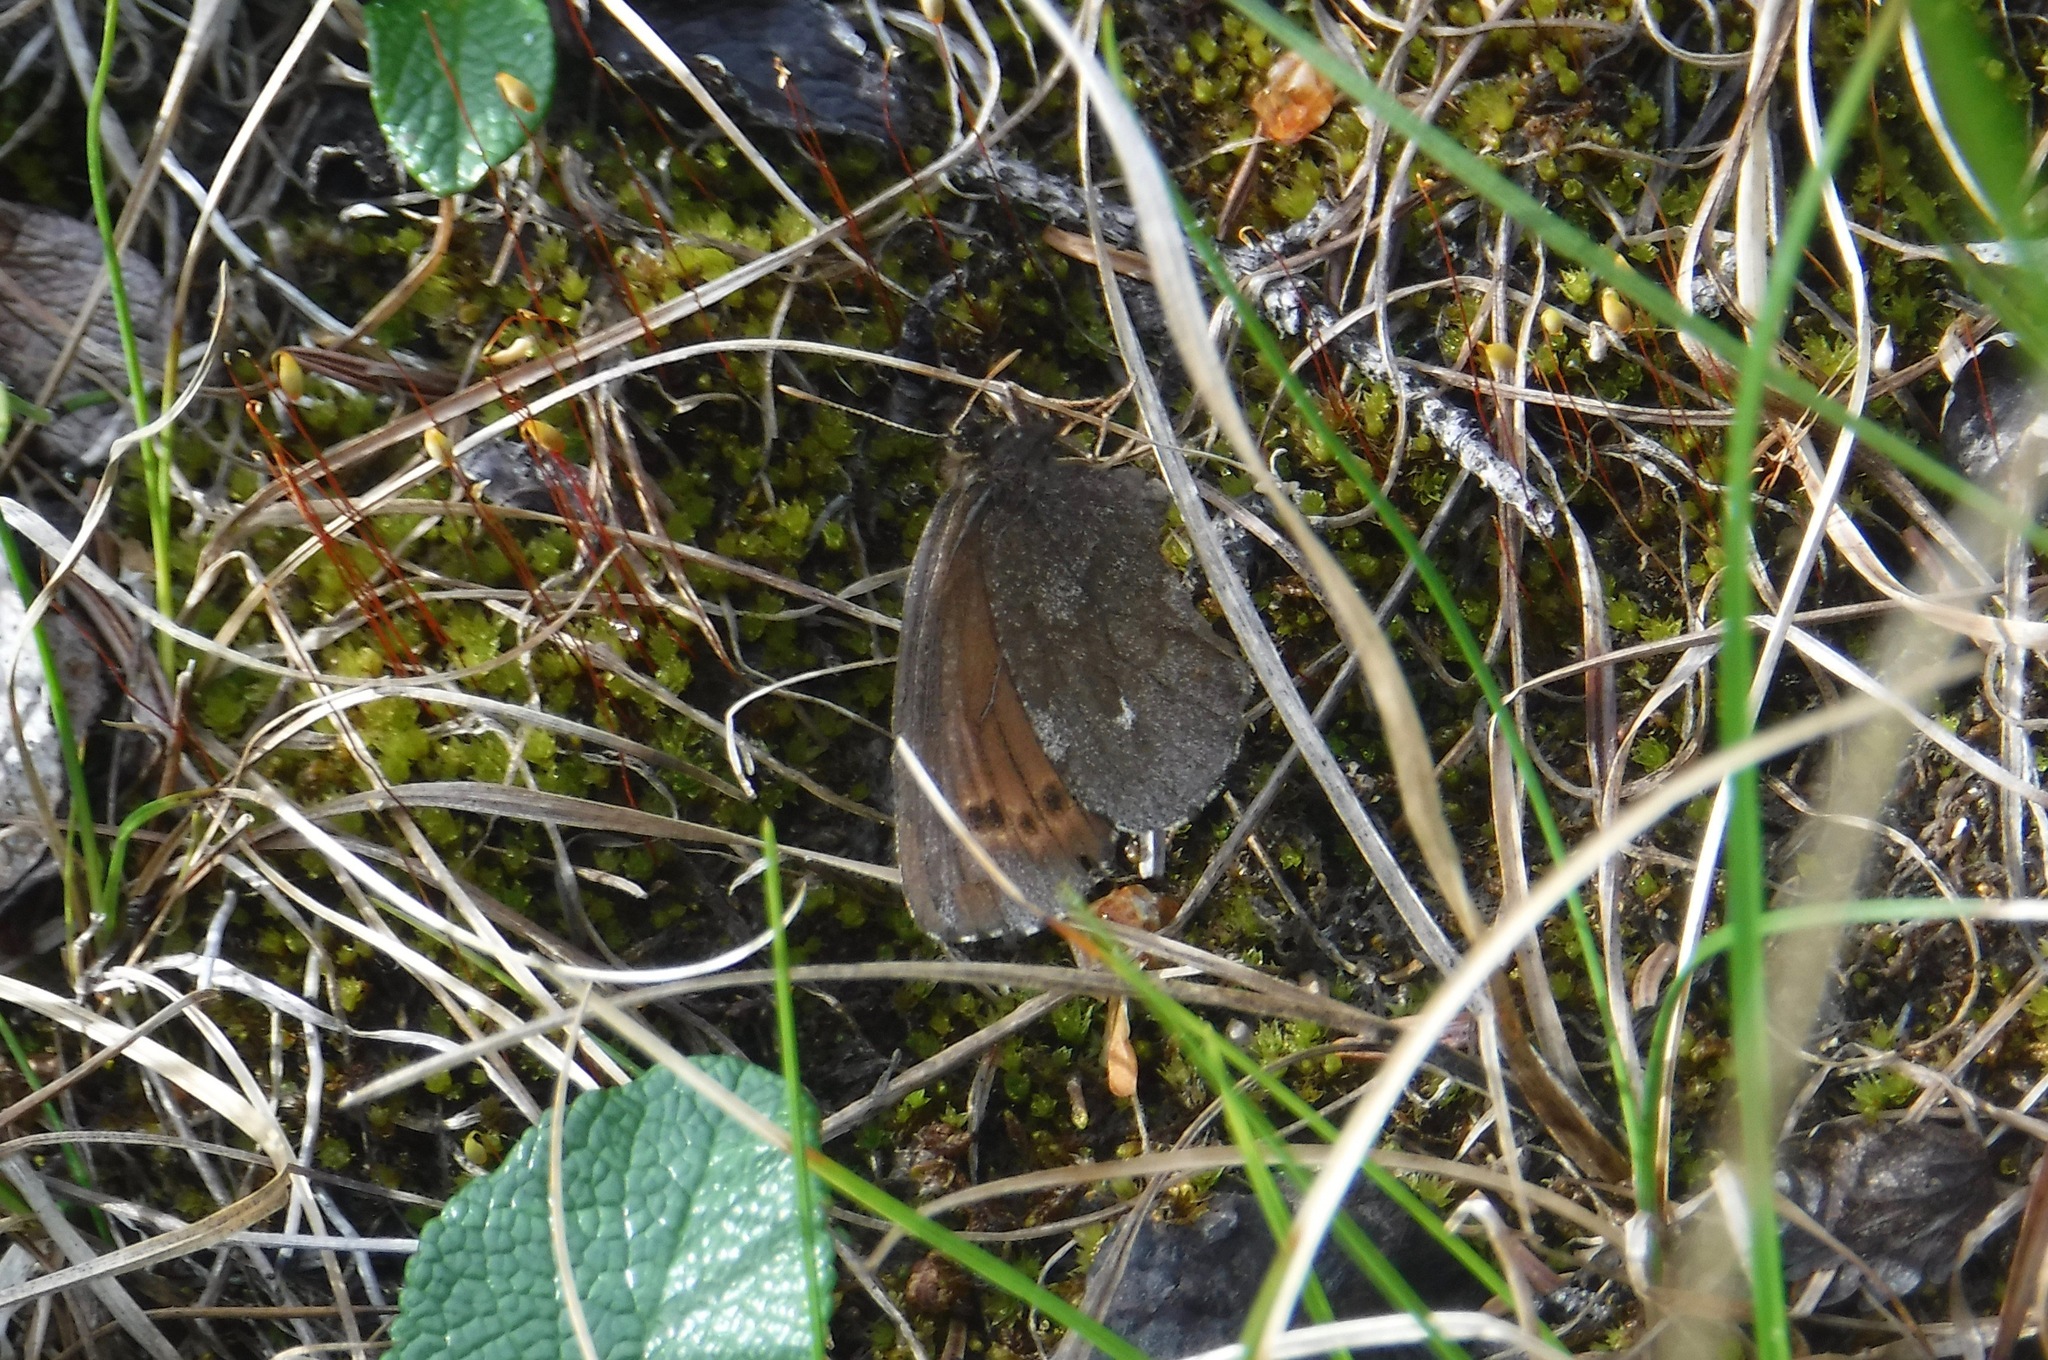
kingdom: Animalia
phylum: Arthropoda
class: Insecta
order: Lepidoptera
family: Nymphalidae
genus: Erebia
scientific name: Erebia disa
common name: Arctic ringlet
